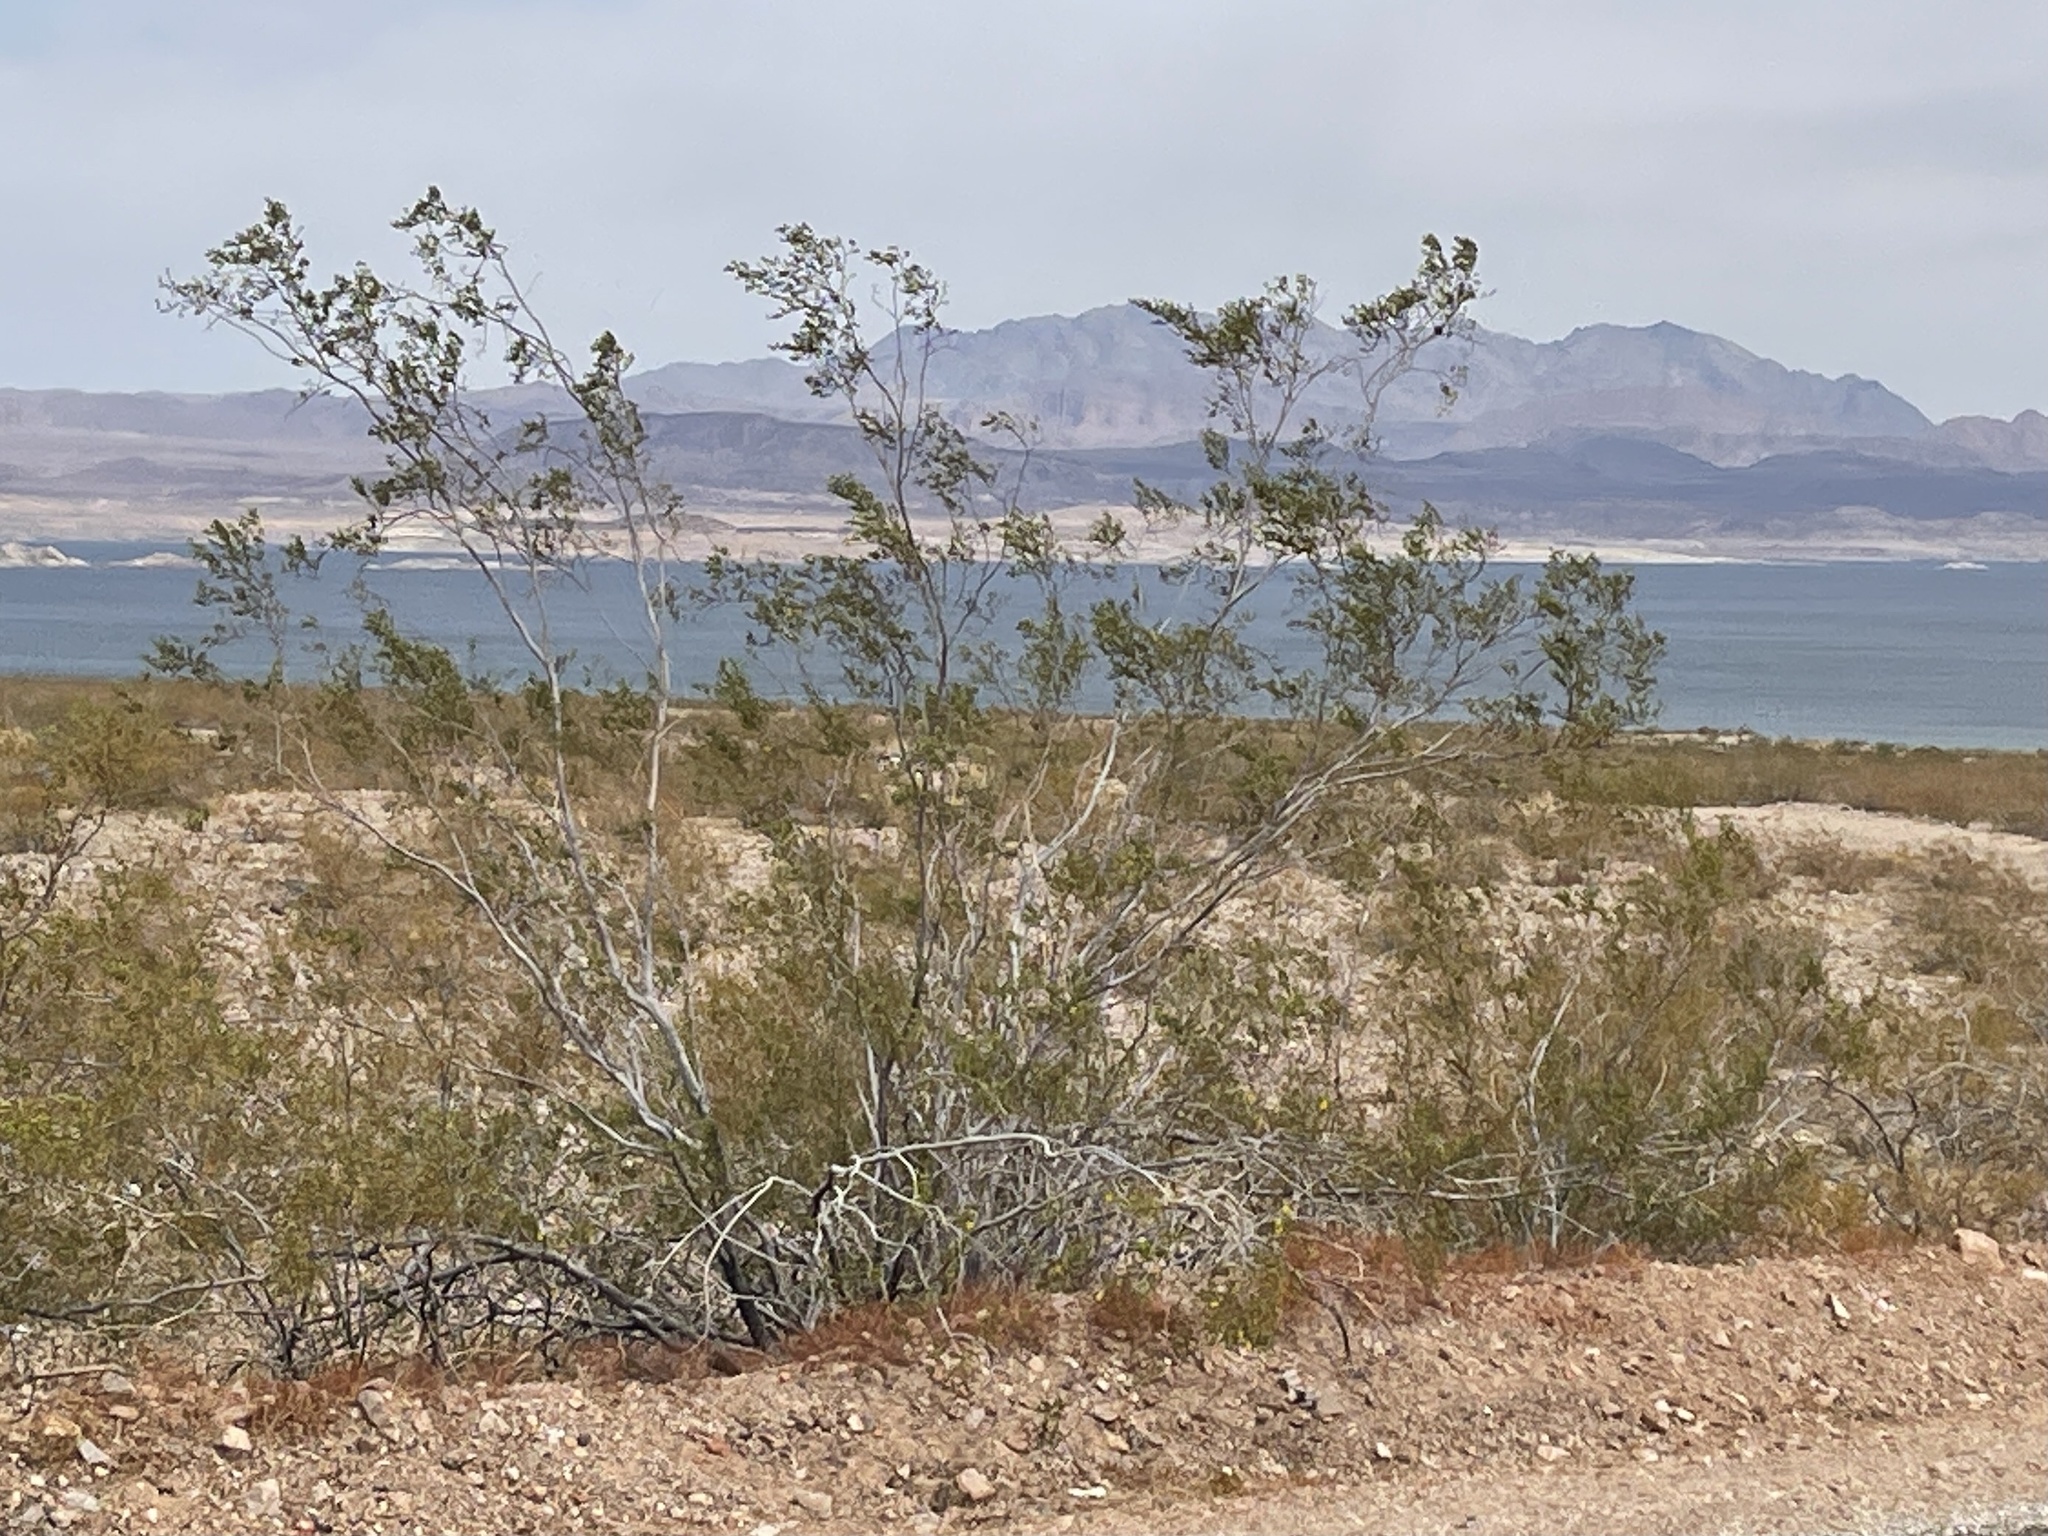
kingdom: Plantae
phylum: Tracheophyta
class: Magnoliopsida
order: Zygophyllales
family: Zygophyllaceae
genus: Larrea
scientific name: Larrea tridentata
